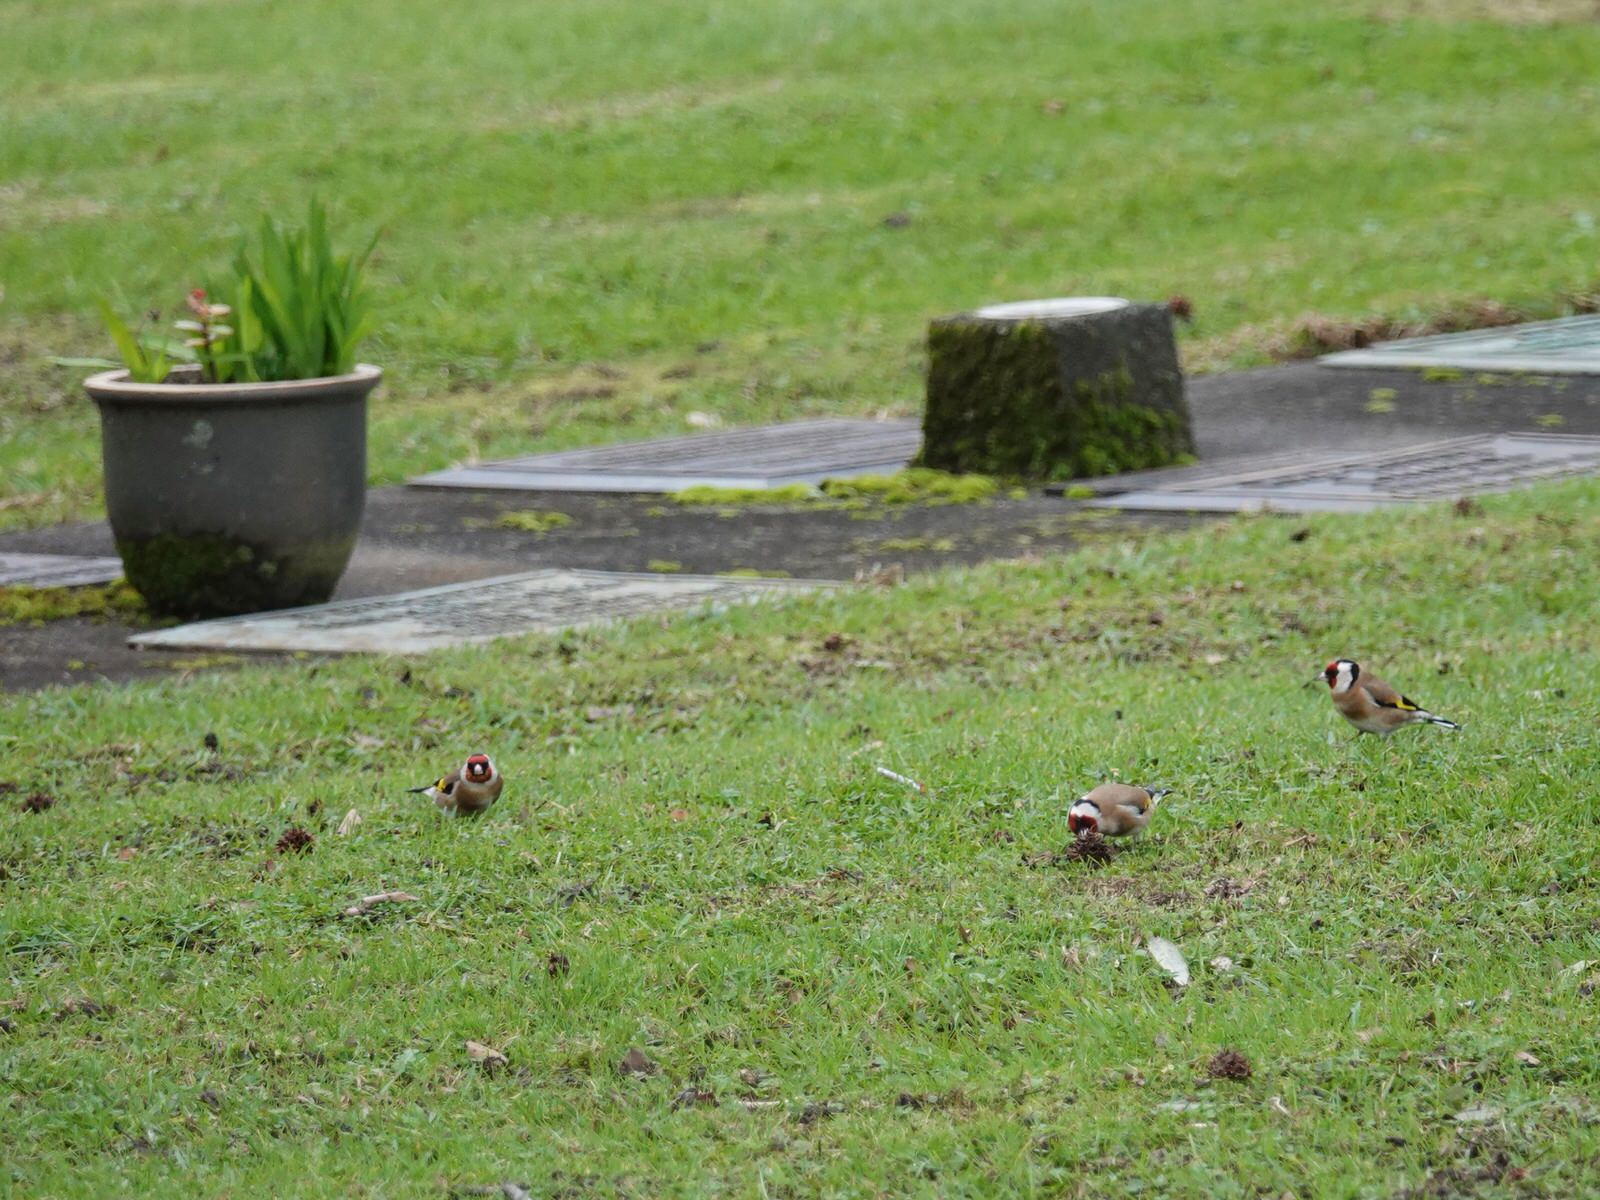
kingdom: Animalia
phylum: Chordata
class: Aves
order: Passeriformes
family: Fringillidae
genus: Carduelis
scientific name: Carduelis carduelis
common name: European goldfinch
